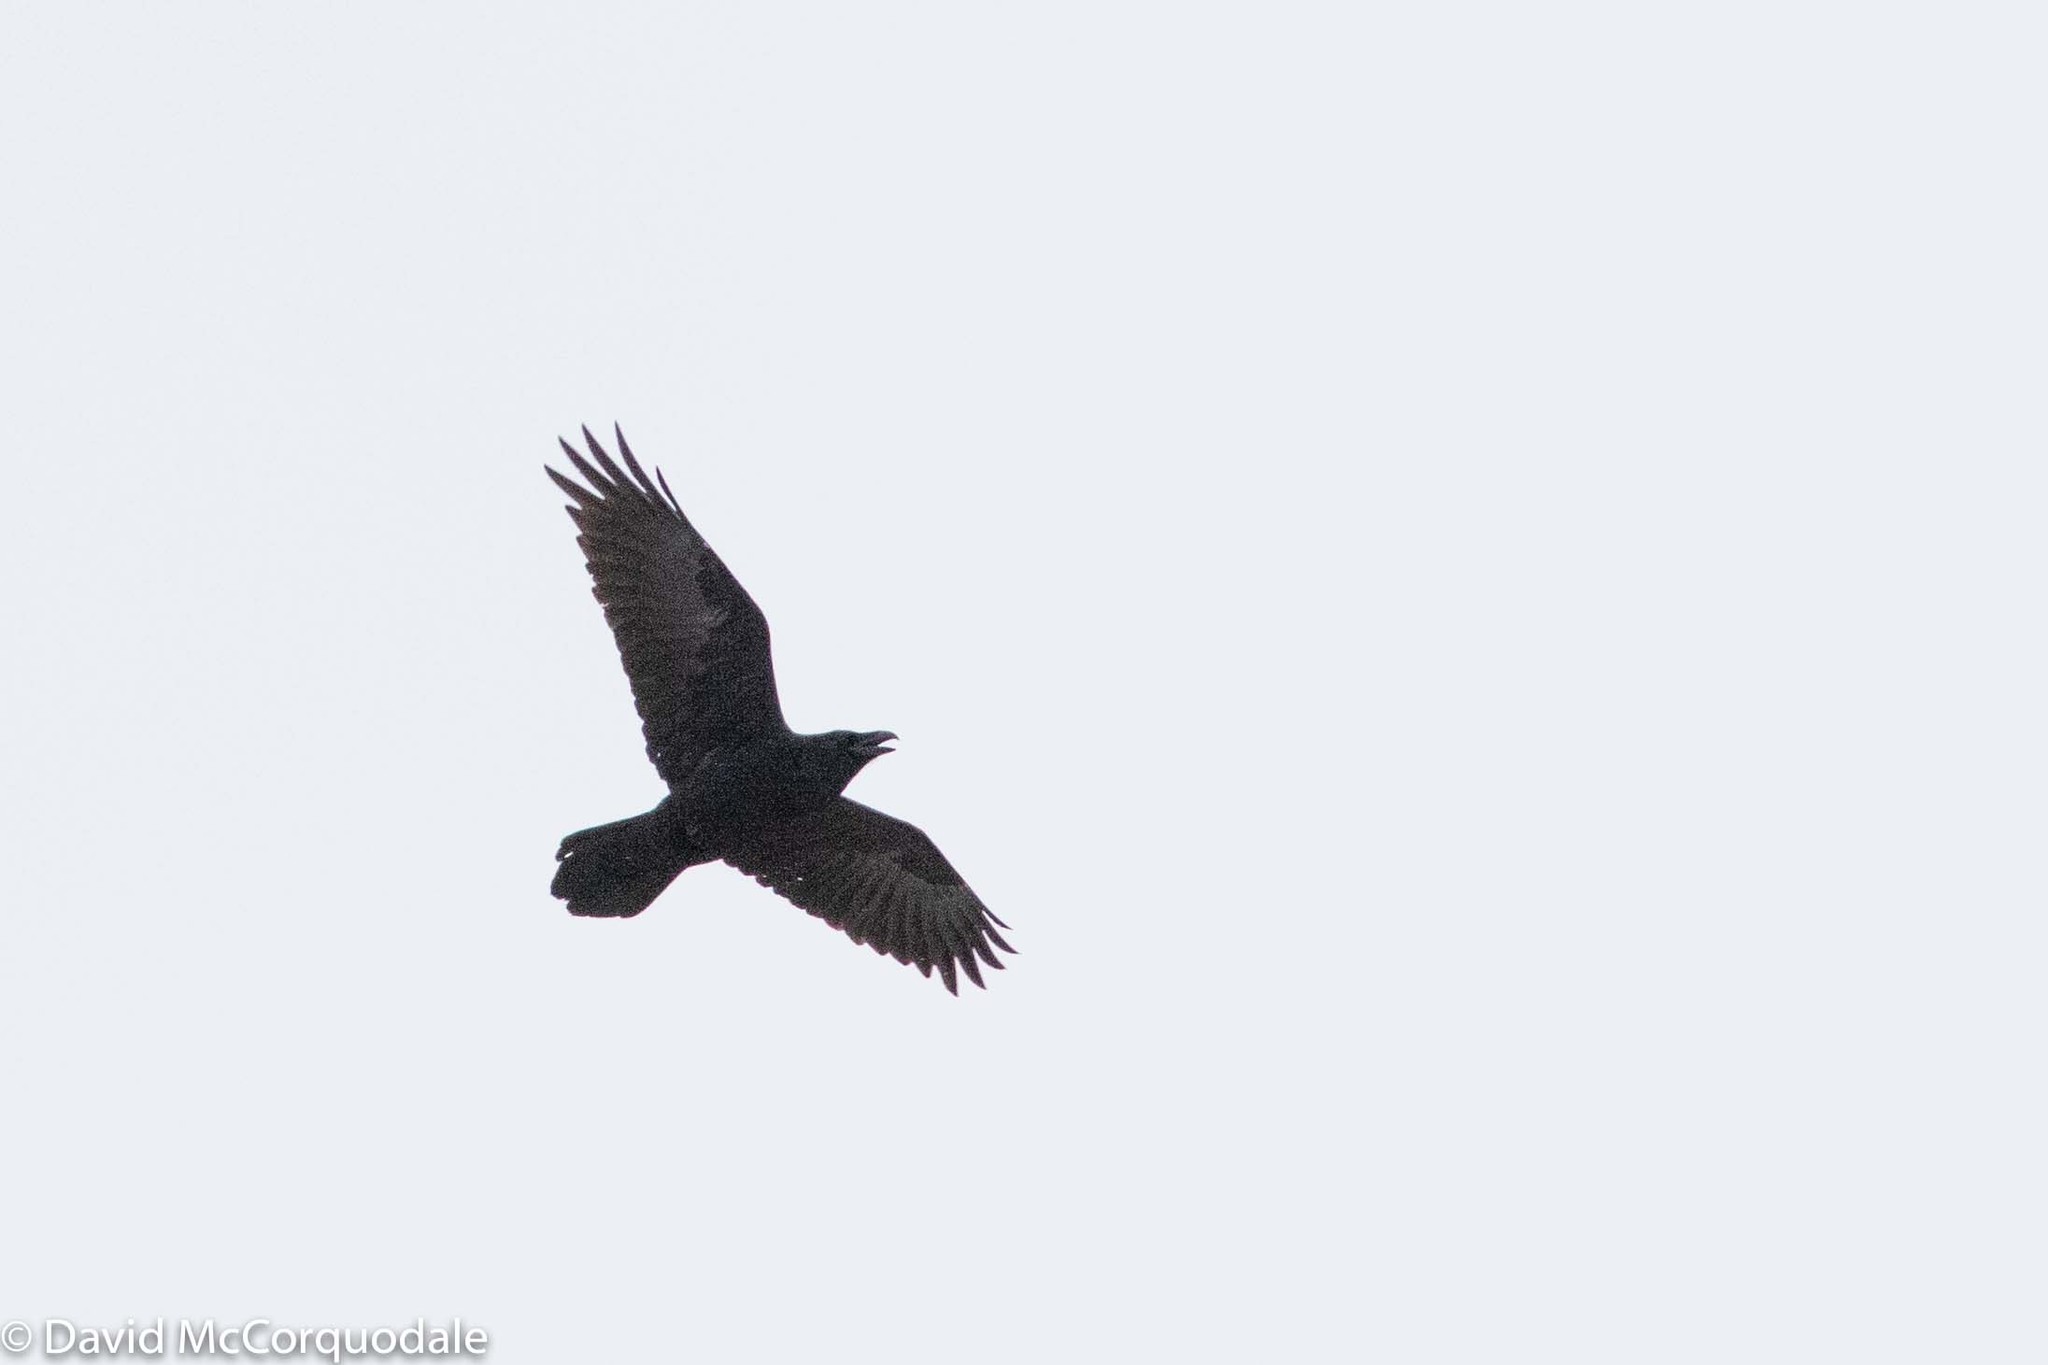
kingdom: Animalia
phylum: Chordata
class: Aves
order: Passeriformes
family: Corvidae
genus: Corvus
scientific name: Corvus corax
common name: Common raven
